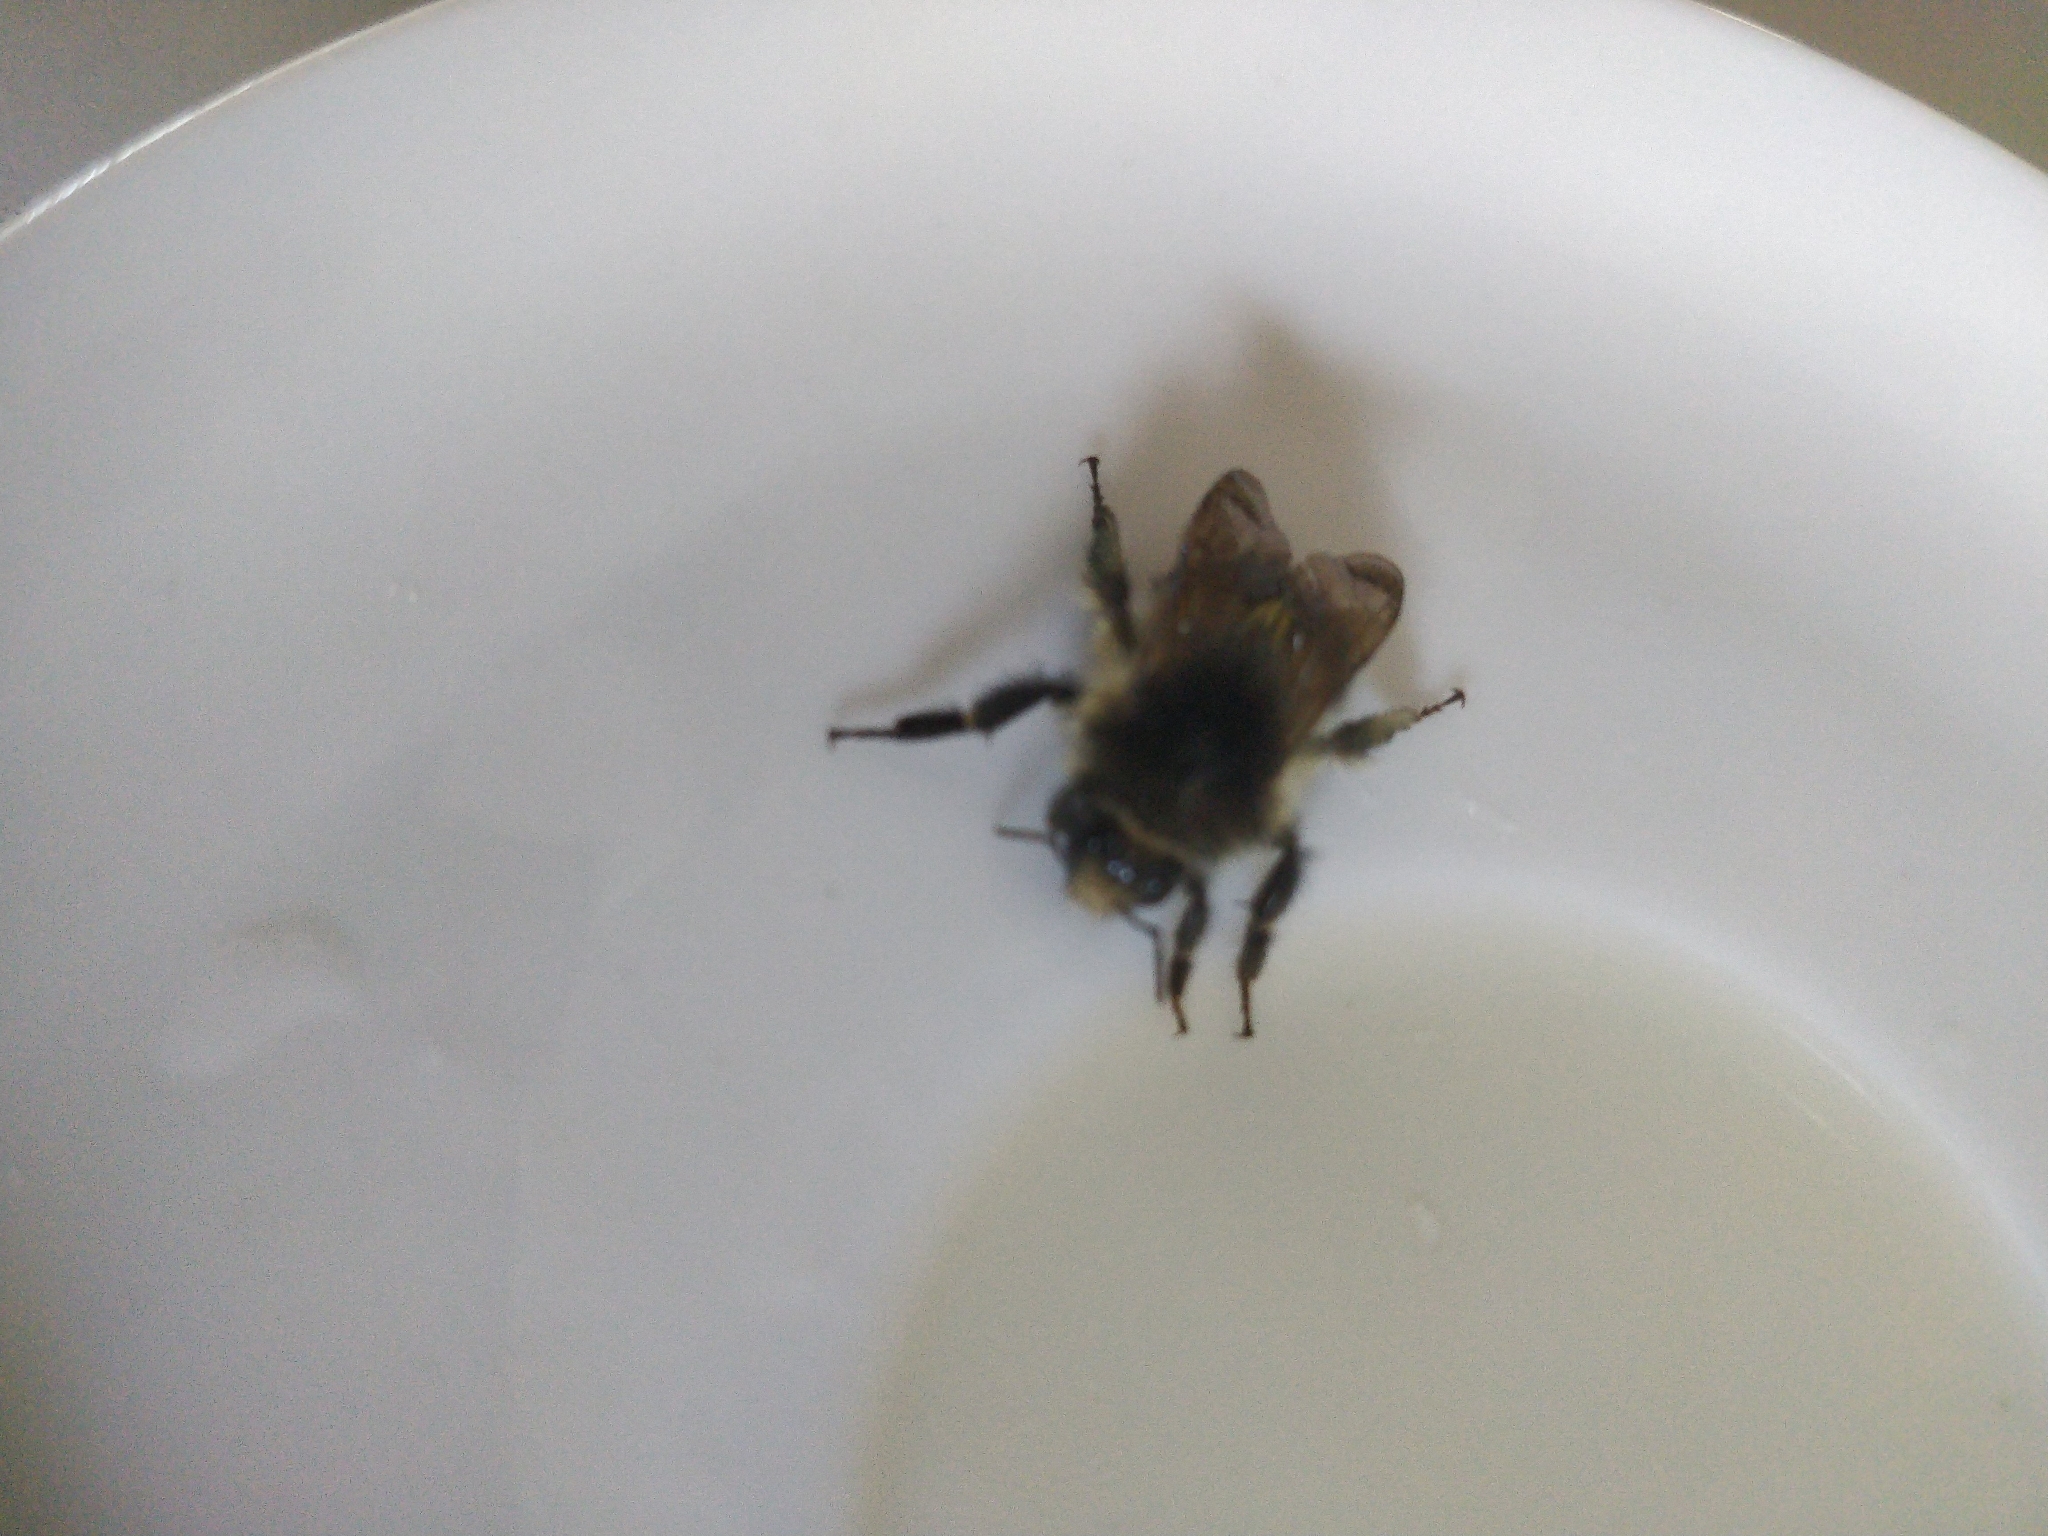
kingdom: Animalia
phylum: Arthropoda
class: Insecta
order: Hymenoptera
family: Apidae
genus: Bombus
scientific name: Bombus pascuorum
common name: Common carder bee
